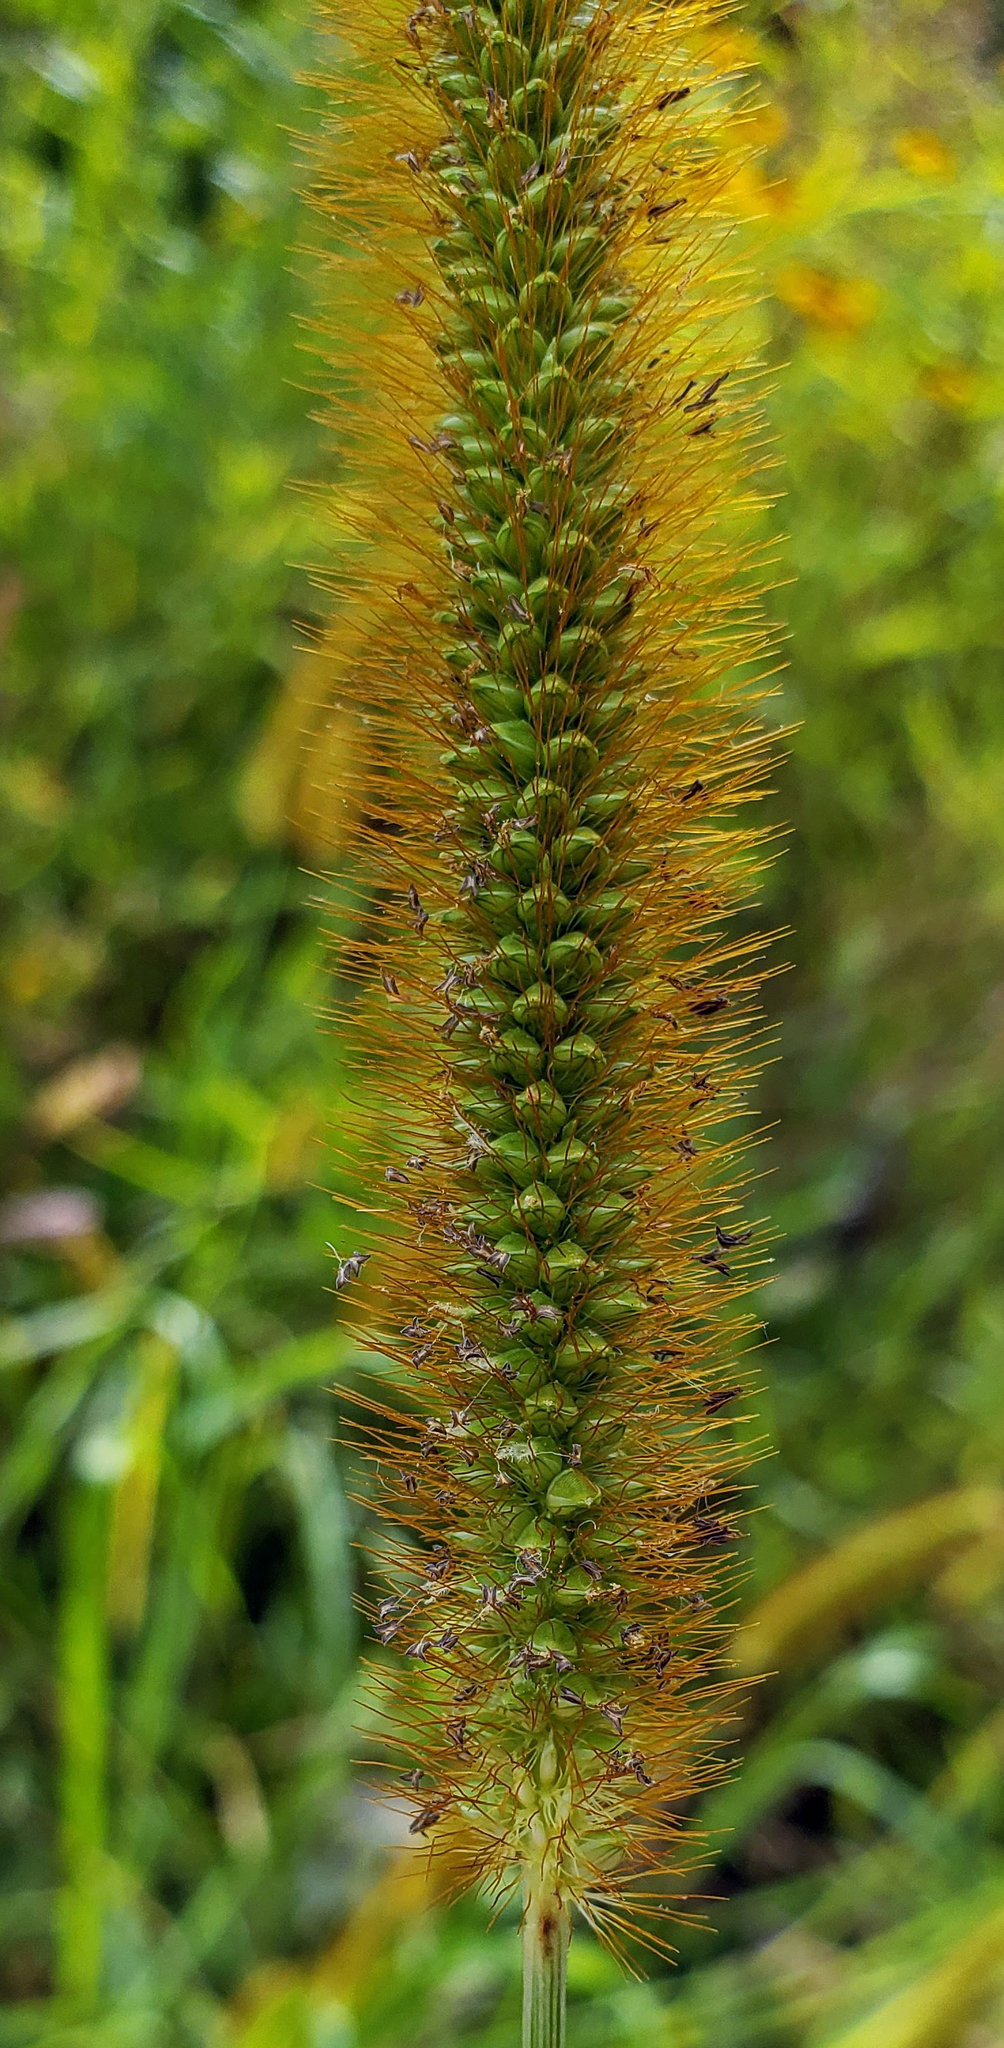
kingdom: Plantae
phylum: Tracheophyta
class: Liliopsida
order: Poales
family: Poaceae
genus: Setaria
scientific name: Setaria pumila
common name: Yellow bristle-grass
